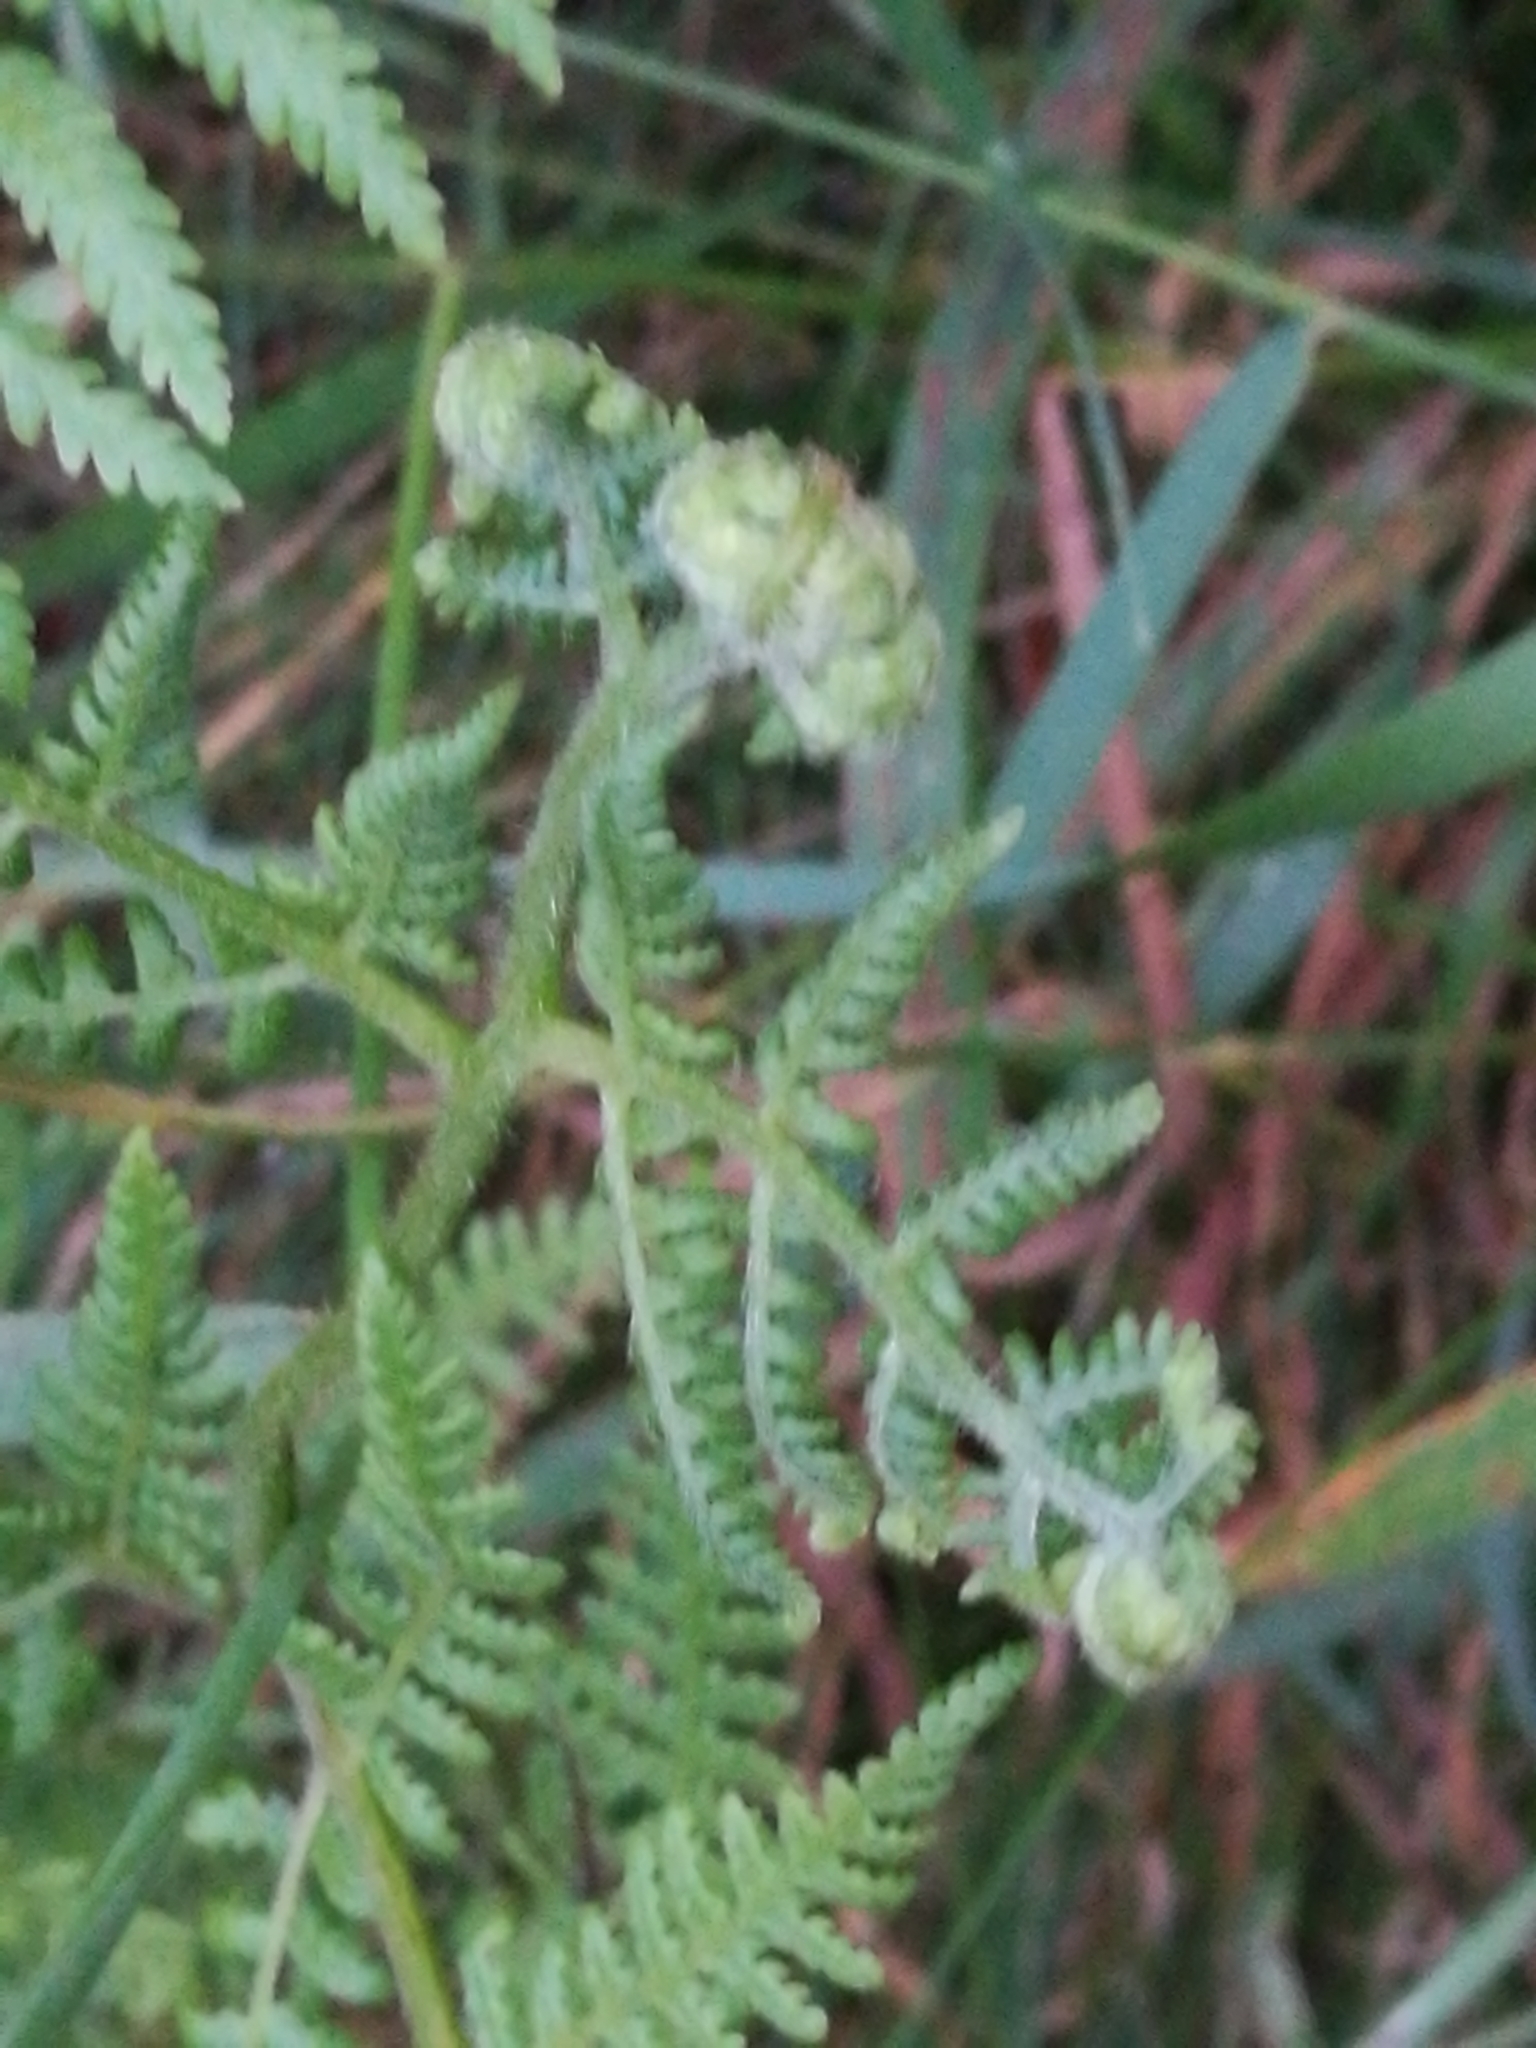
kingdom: Plantae
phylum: Tracheophyta
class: Polypodiopsida
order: Polypodiales
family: Dennstaedtiaceae
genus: Hypolepis
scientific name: Hypolepis ambigua
